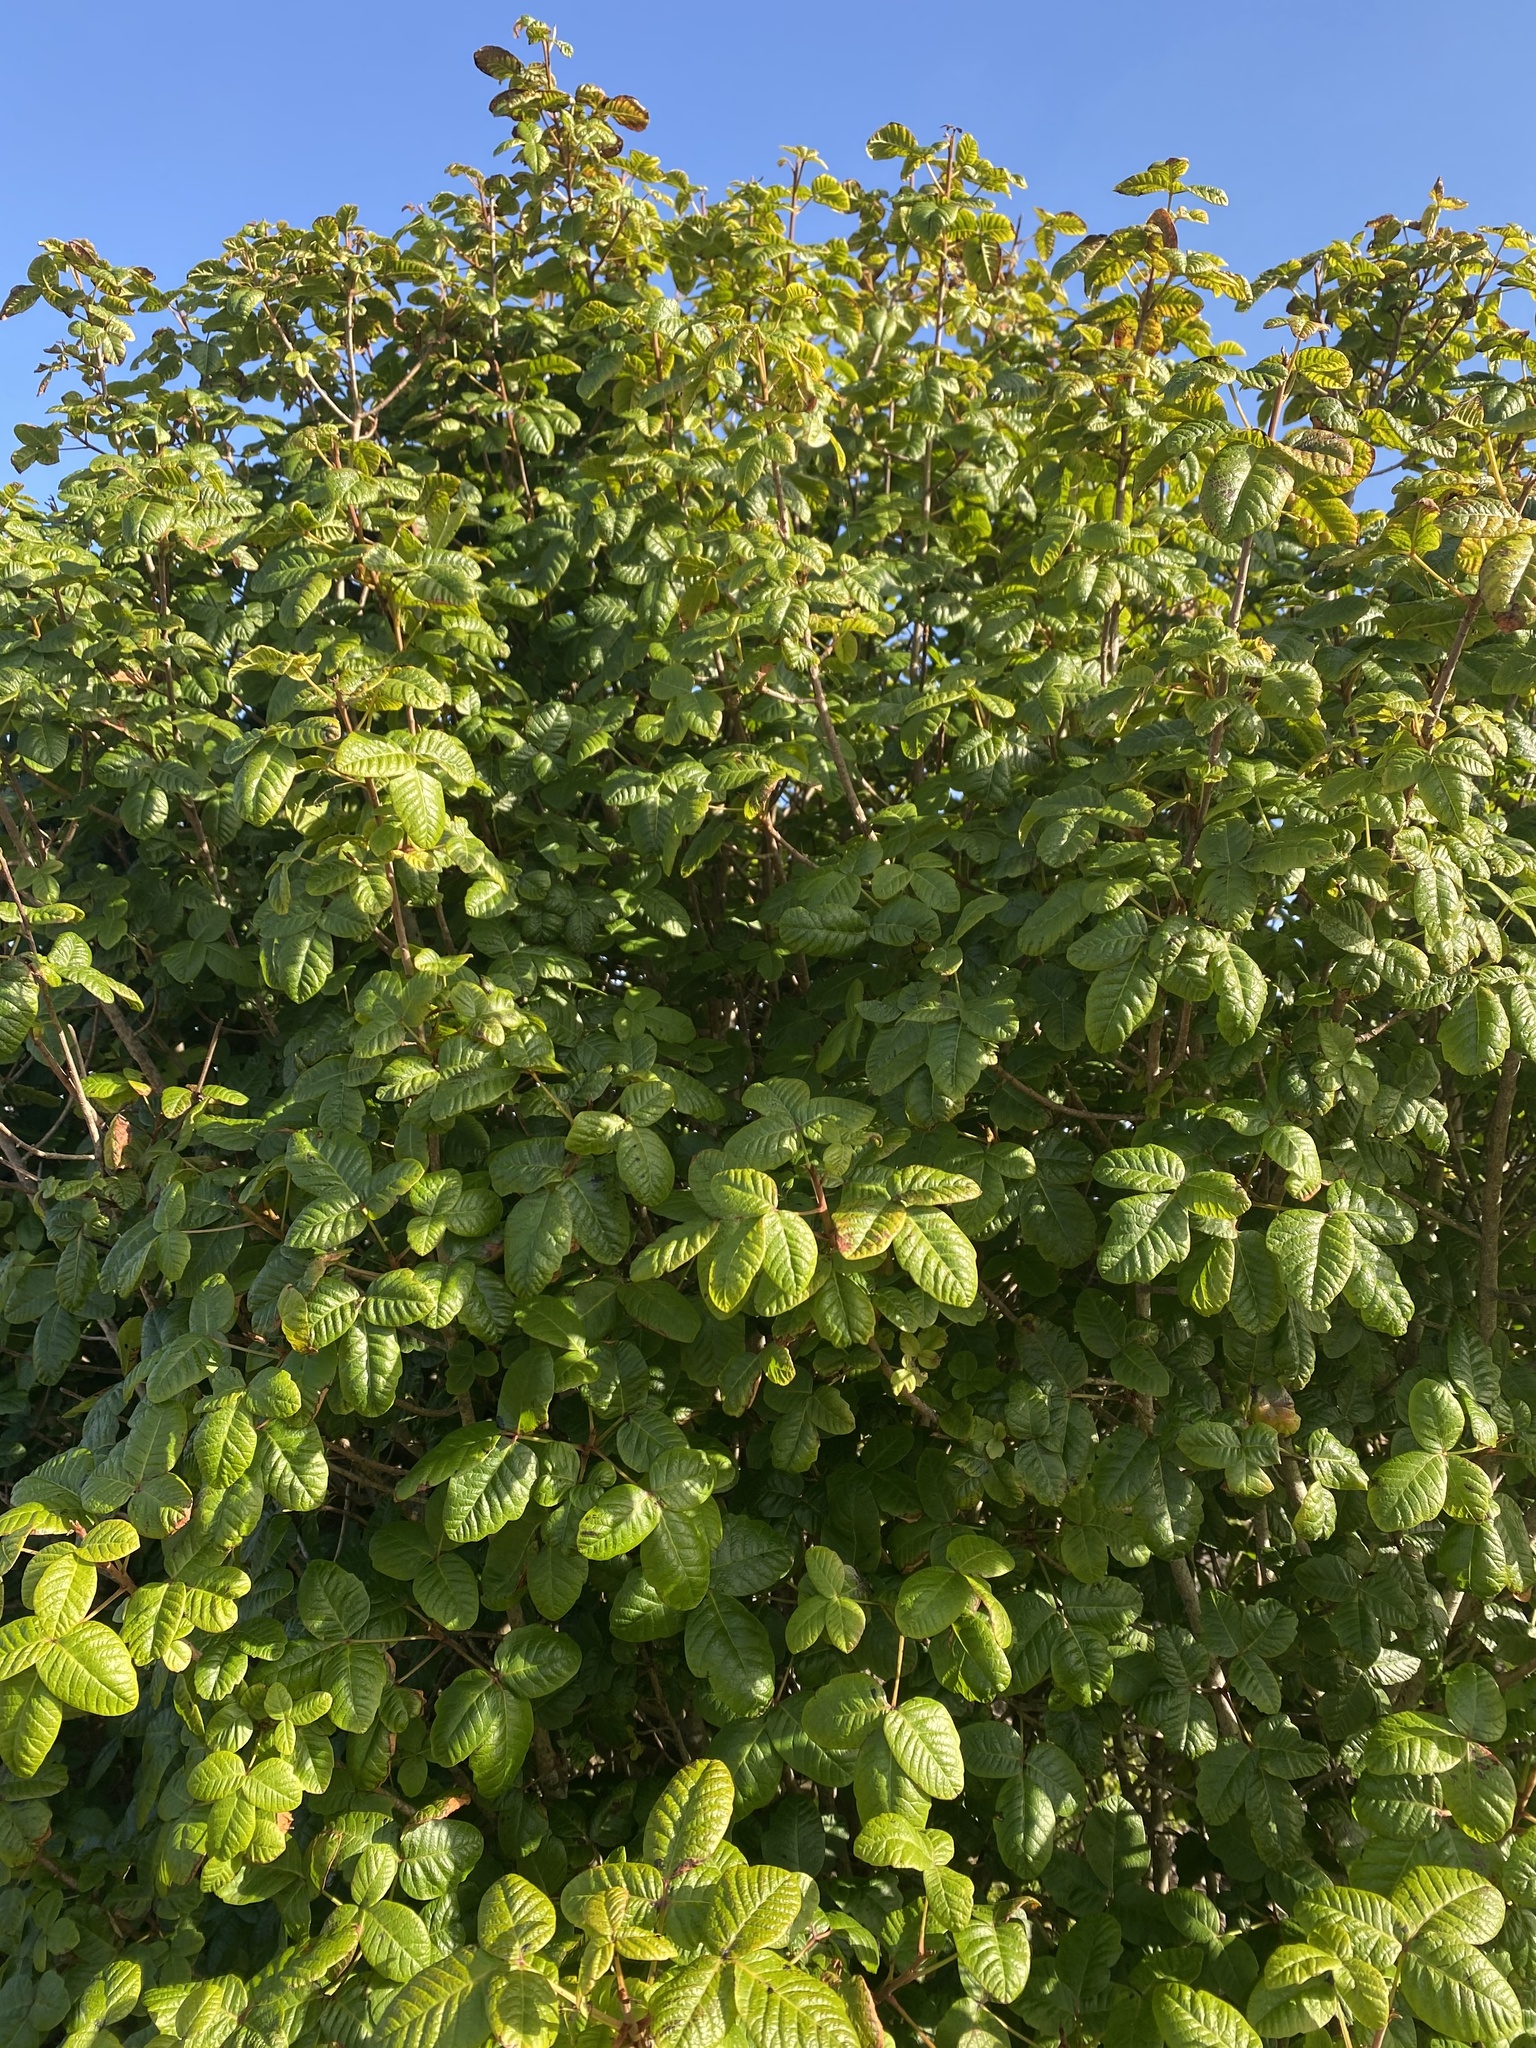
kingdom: Plantae
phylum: Tracheophyta
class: Magnoliopsida
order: Sapindales
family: Anacardiaceae
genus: Toxicodendron
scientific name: Toxicodendron diversilobum
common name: Pacific poison-oak
